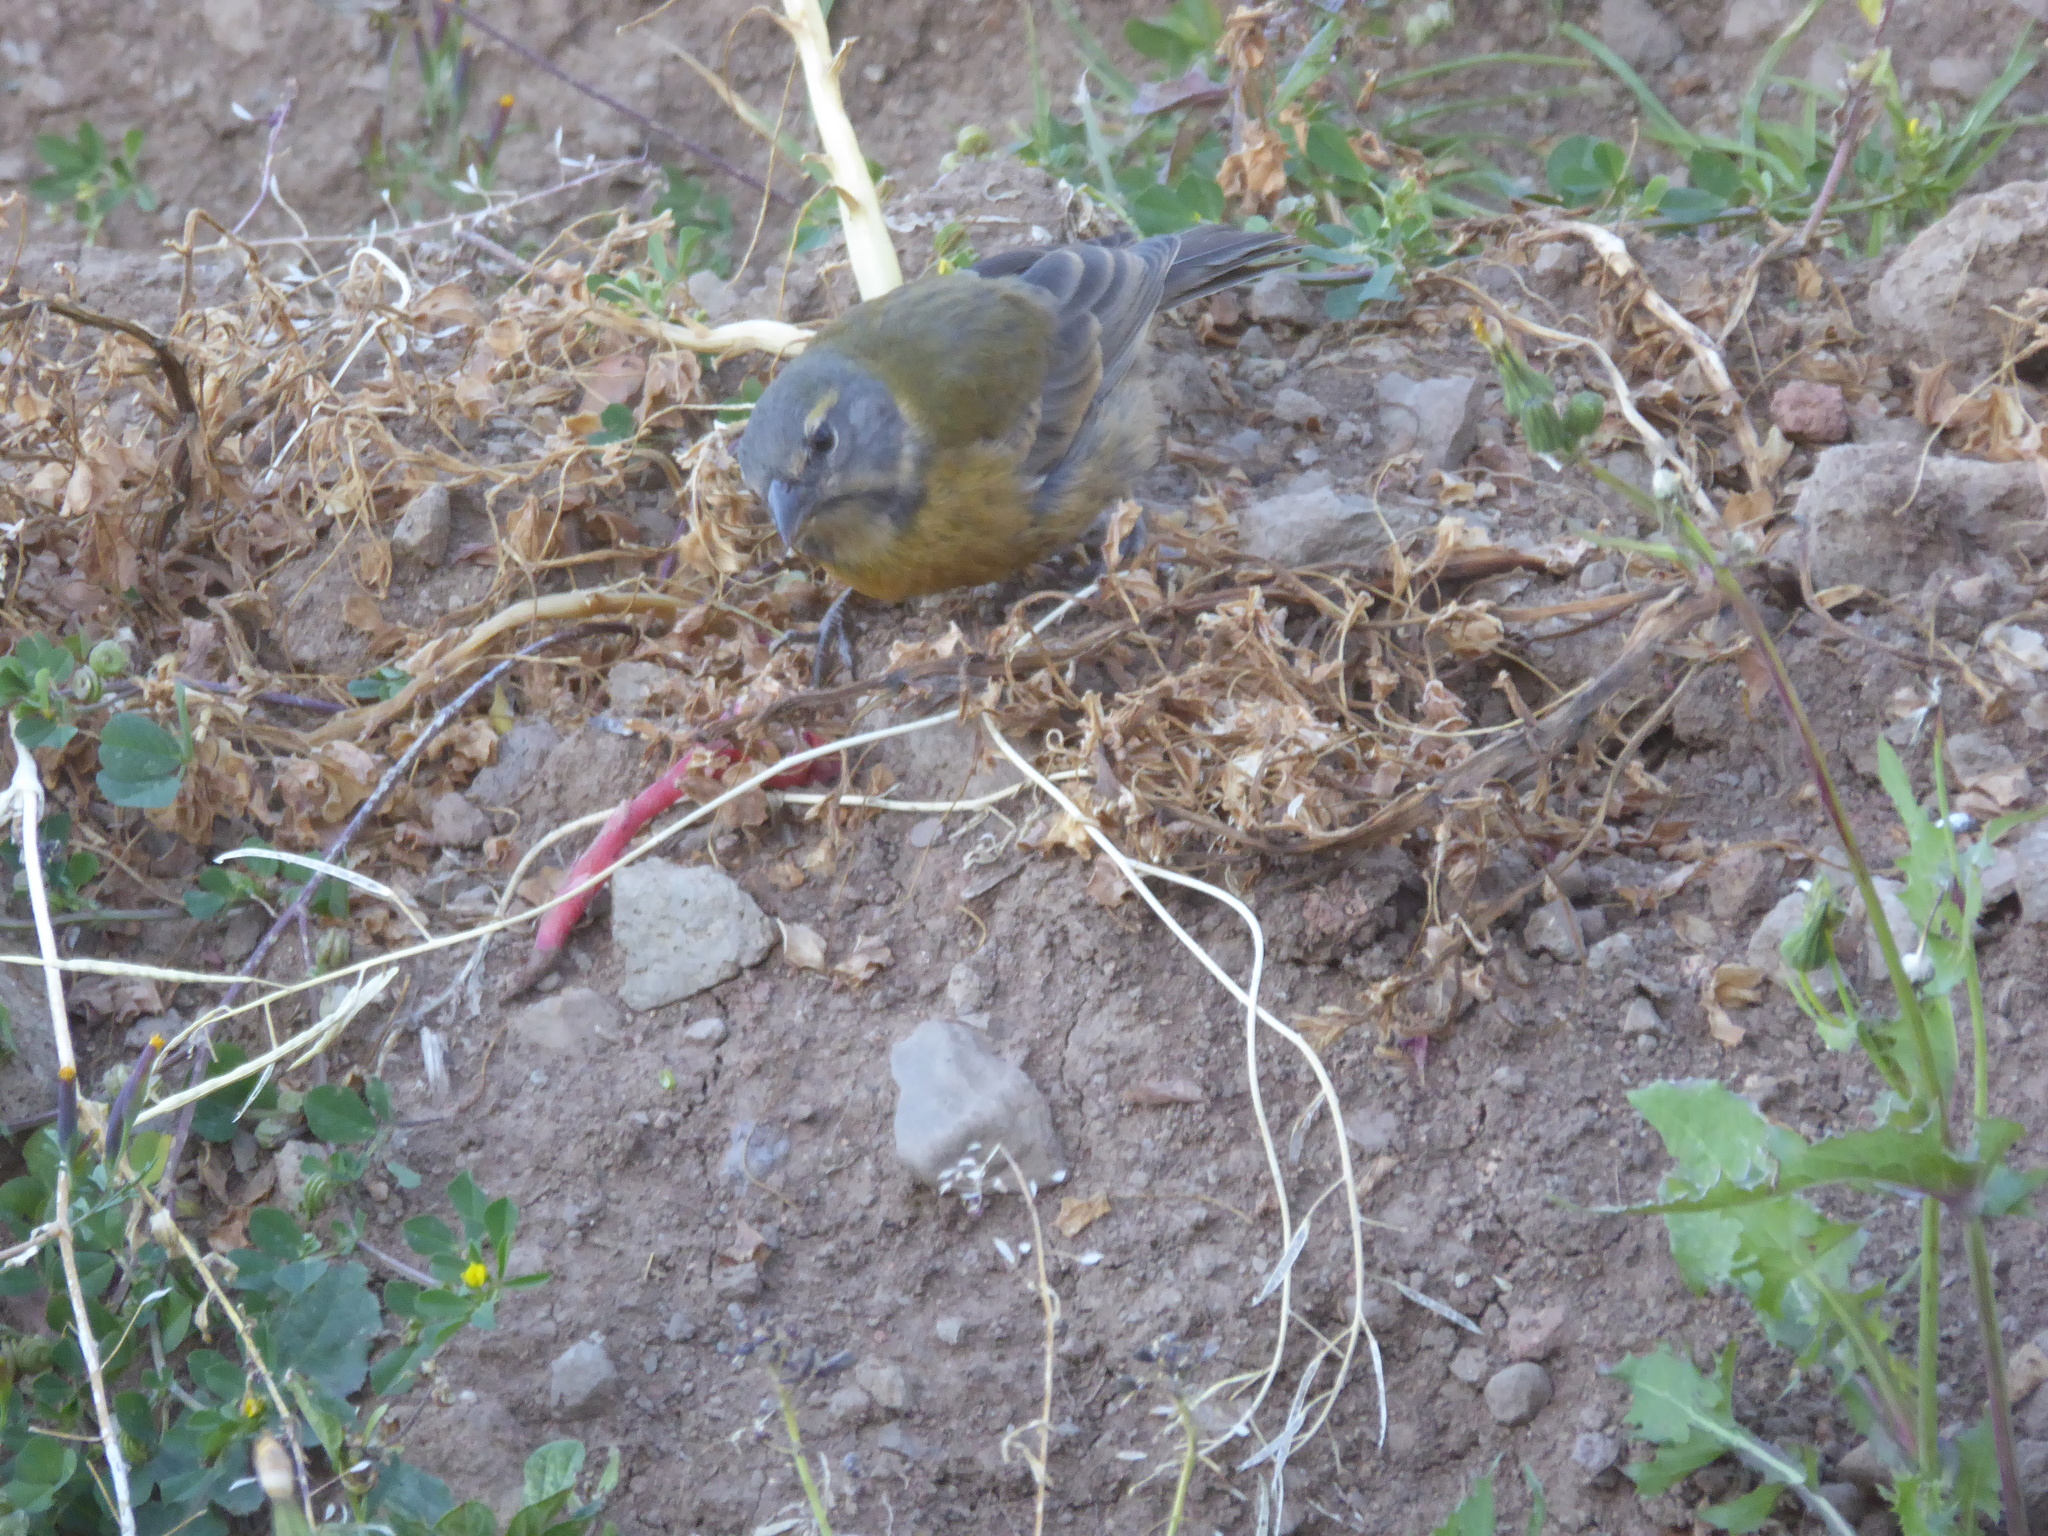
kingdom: Animalia
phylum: Chordata
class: Aves
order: Passeriformes
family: Thraupidae
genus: Phrygilus
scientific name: Phrygilus punensis
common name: Peruvian sierra finch
